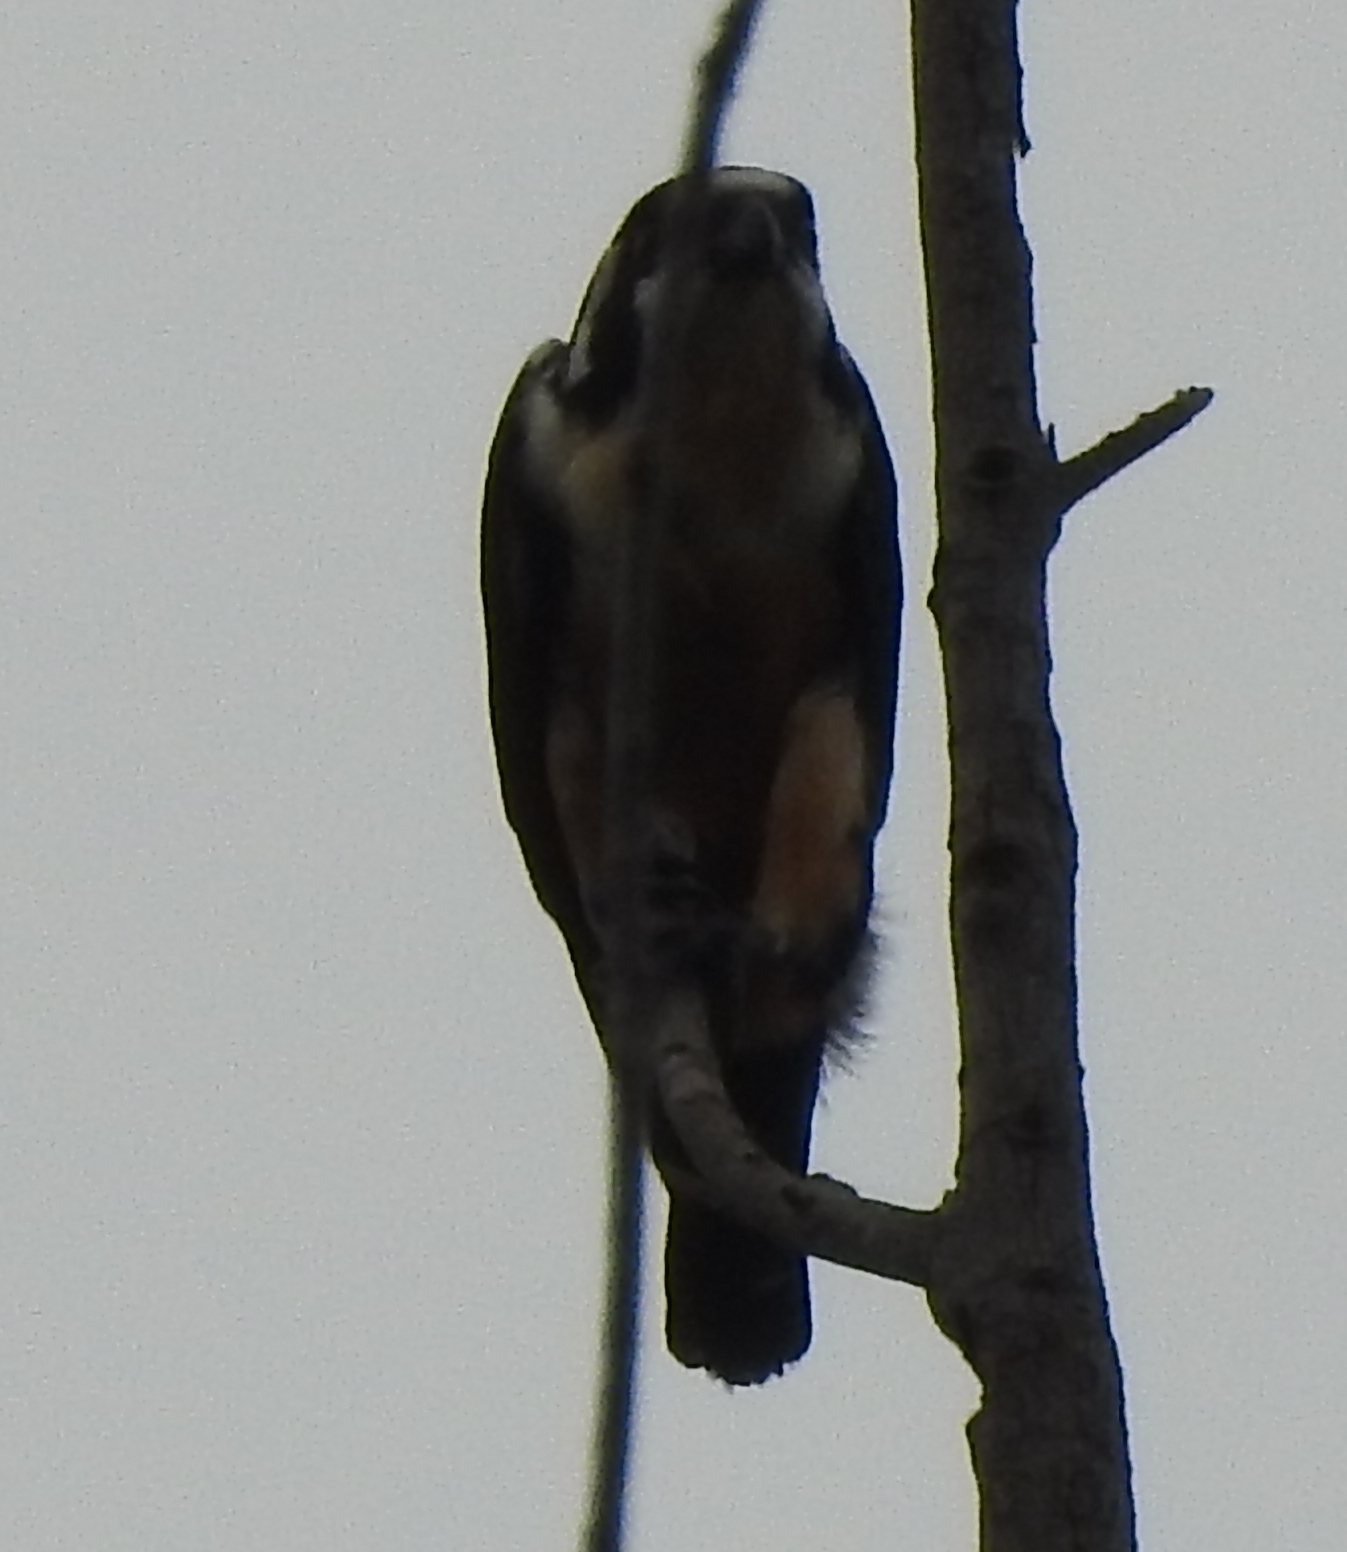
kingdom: Animalia
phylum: Chordata
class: Aves
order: Falconiformes
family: Falconidae
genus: Microhierax
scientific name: Microhierax fringillarius
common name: Black-thighed falconet
